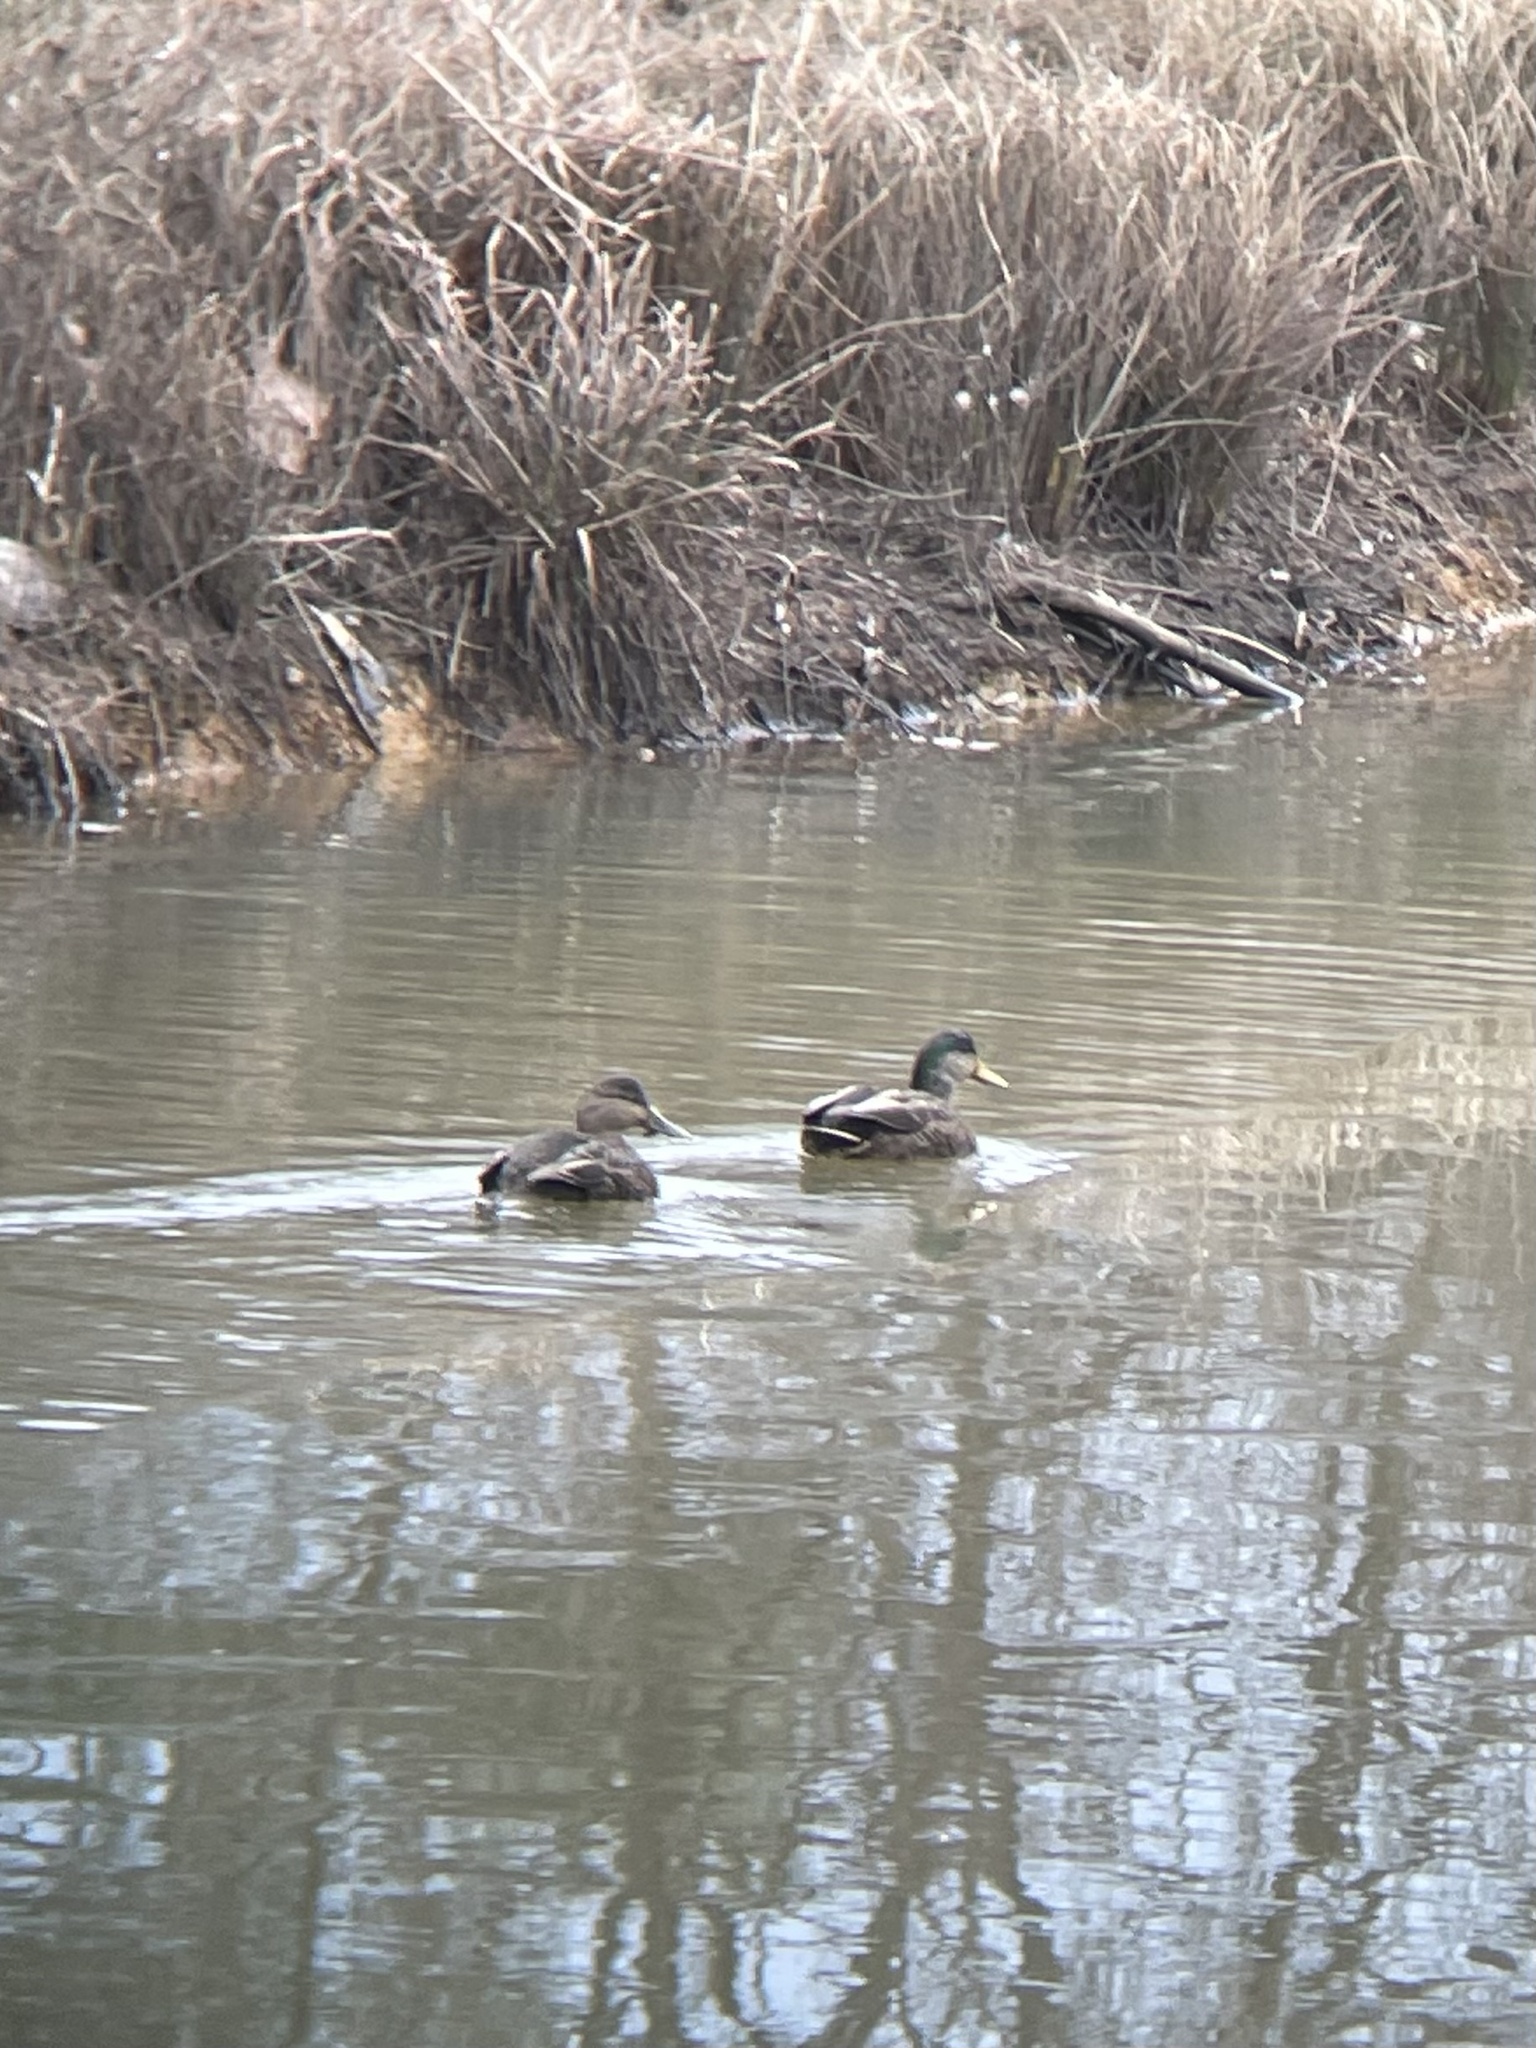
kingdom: Animalia
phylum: Chordata
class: Aves
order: Anseriformes
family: Anatidae
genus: Anas
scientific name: Anas
